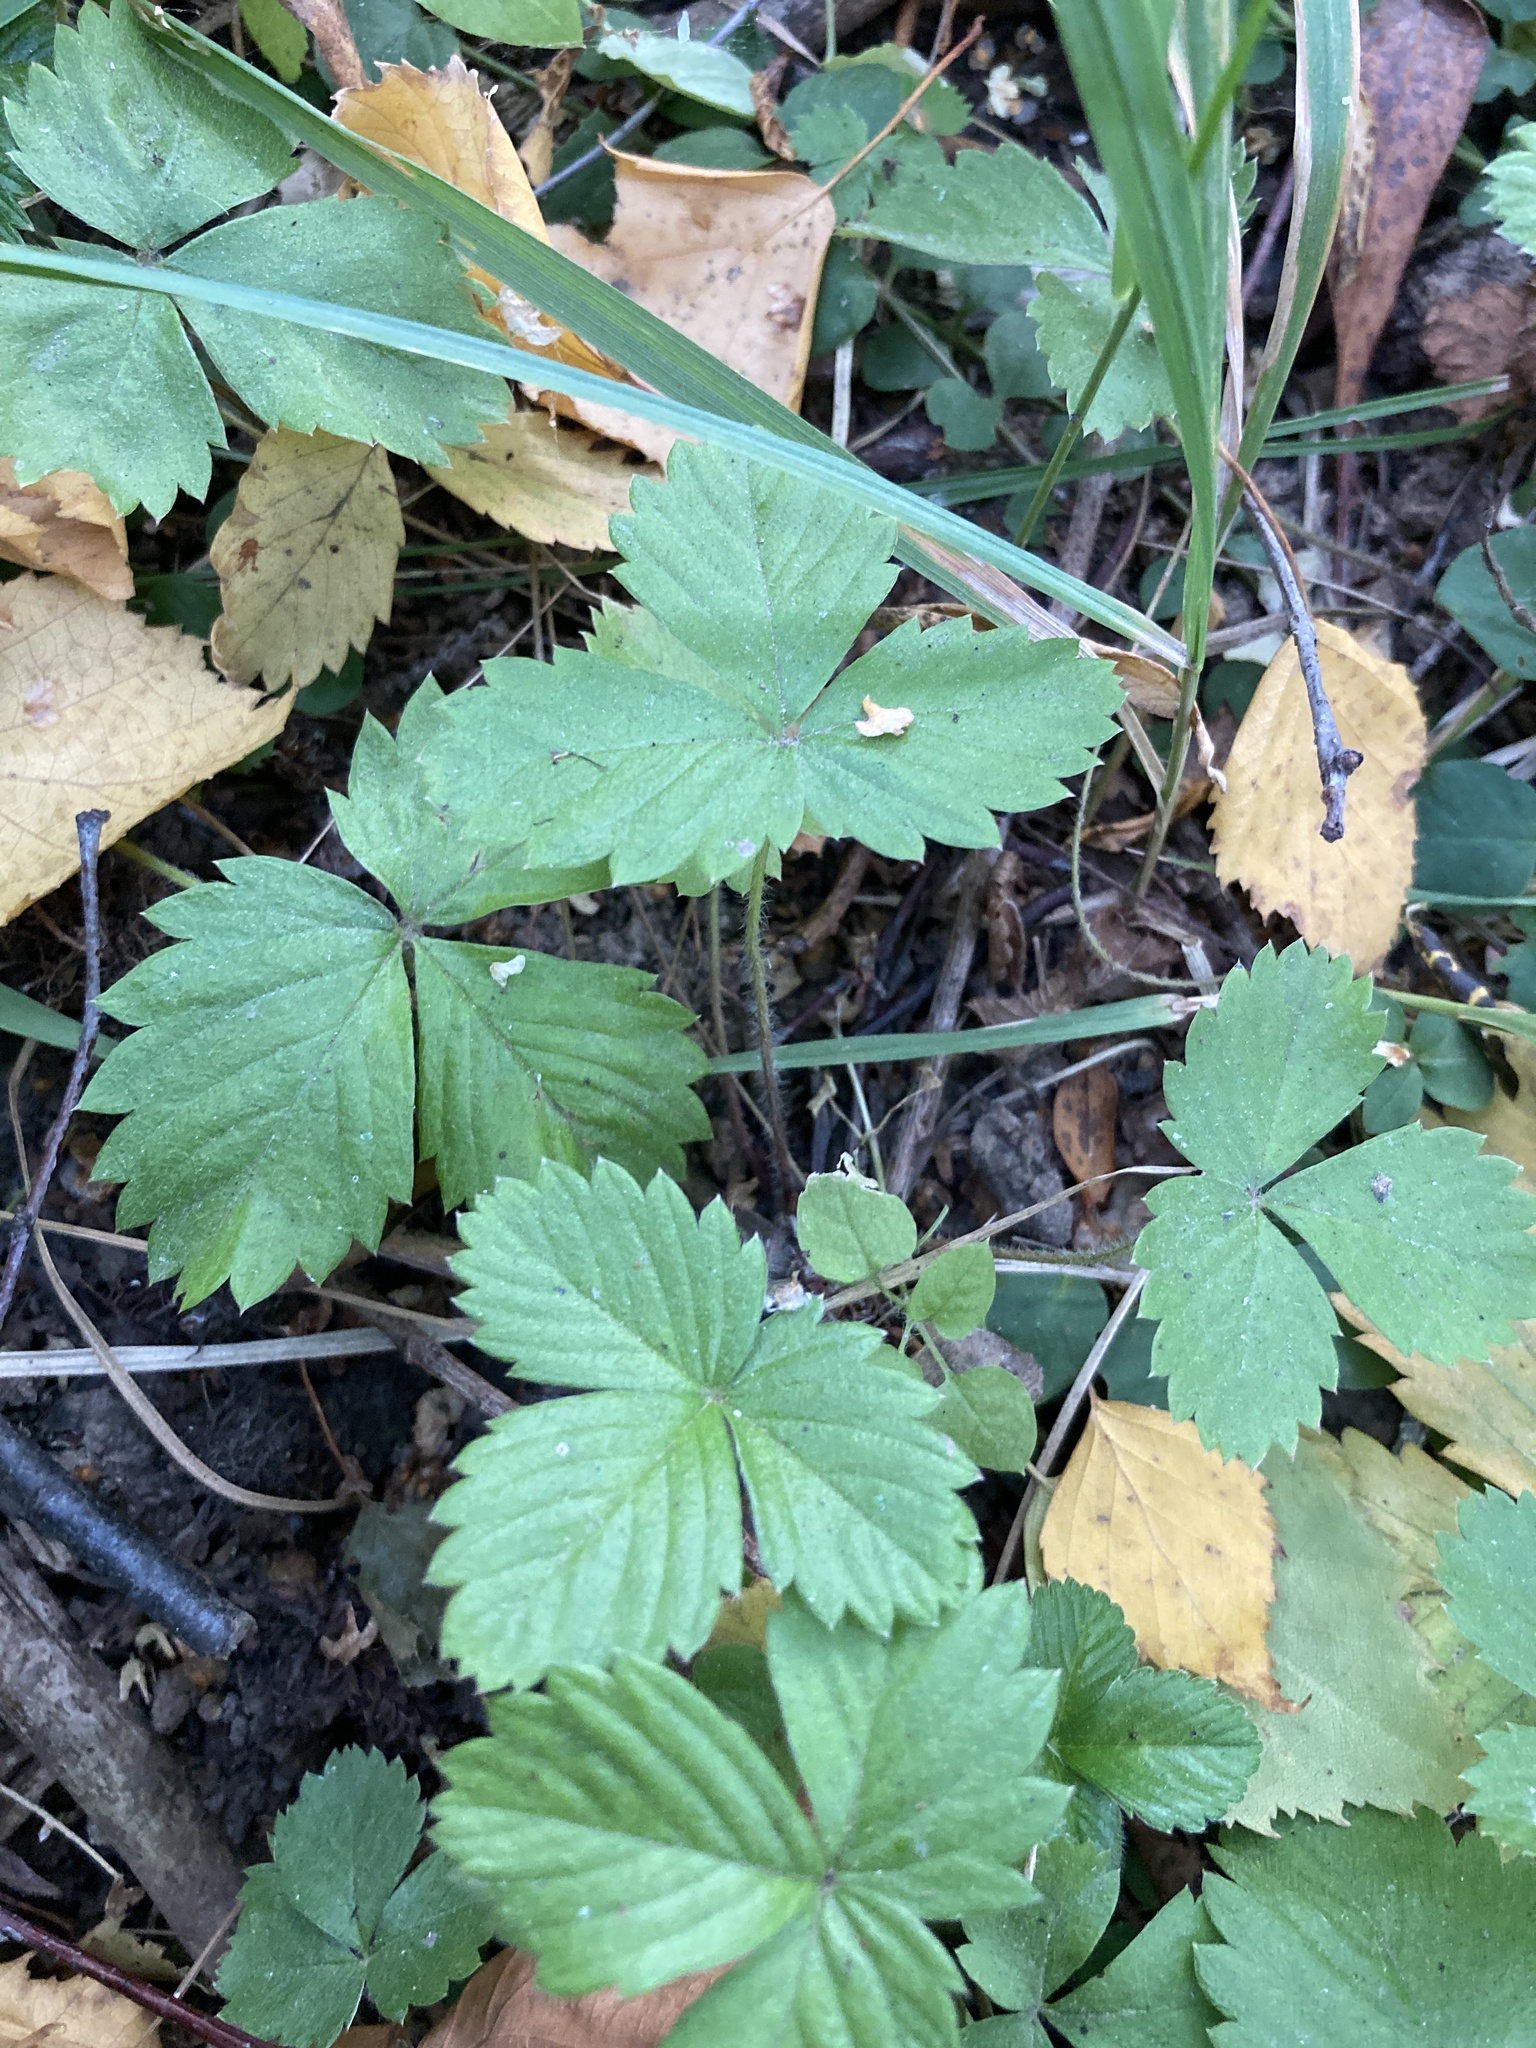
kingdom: Plantae
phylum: Tracheophyta
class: Magnoliopsida
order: Rosales
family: Rosaceae
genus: Fragaria
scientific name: Fragaria vesca
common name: Wild strawberry
